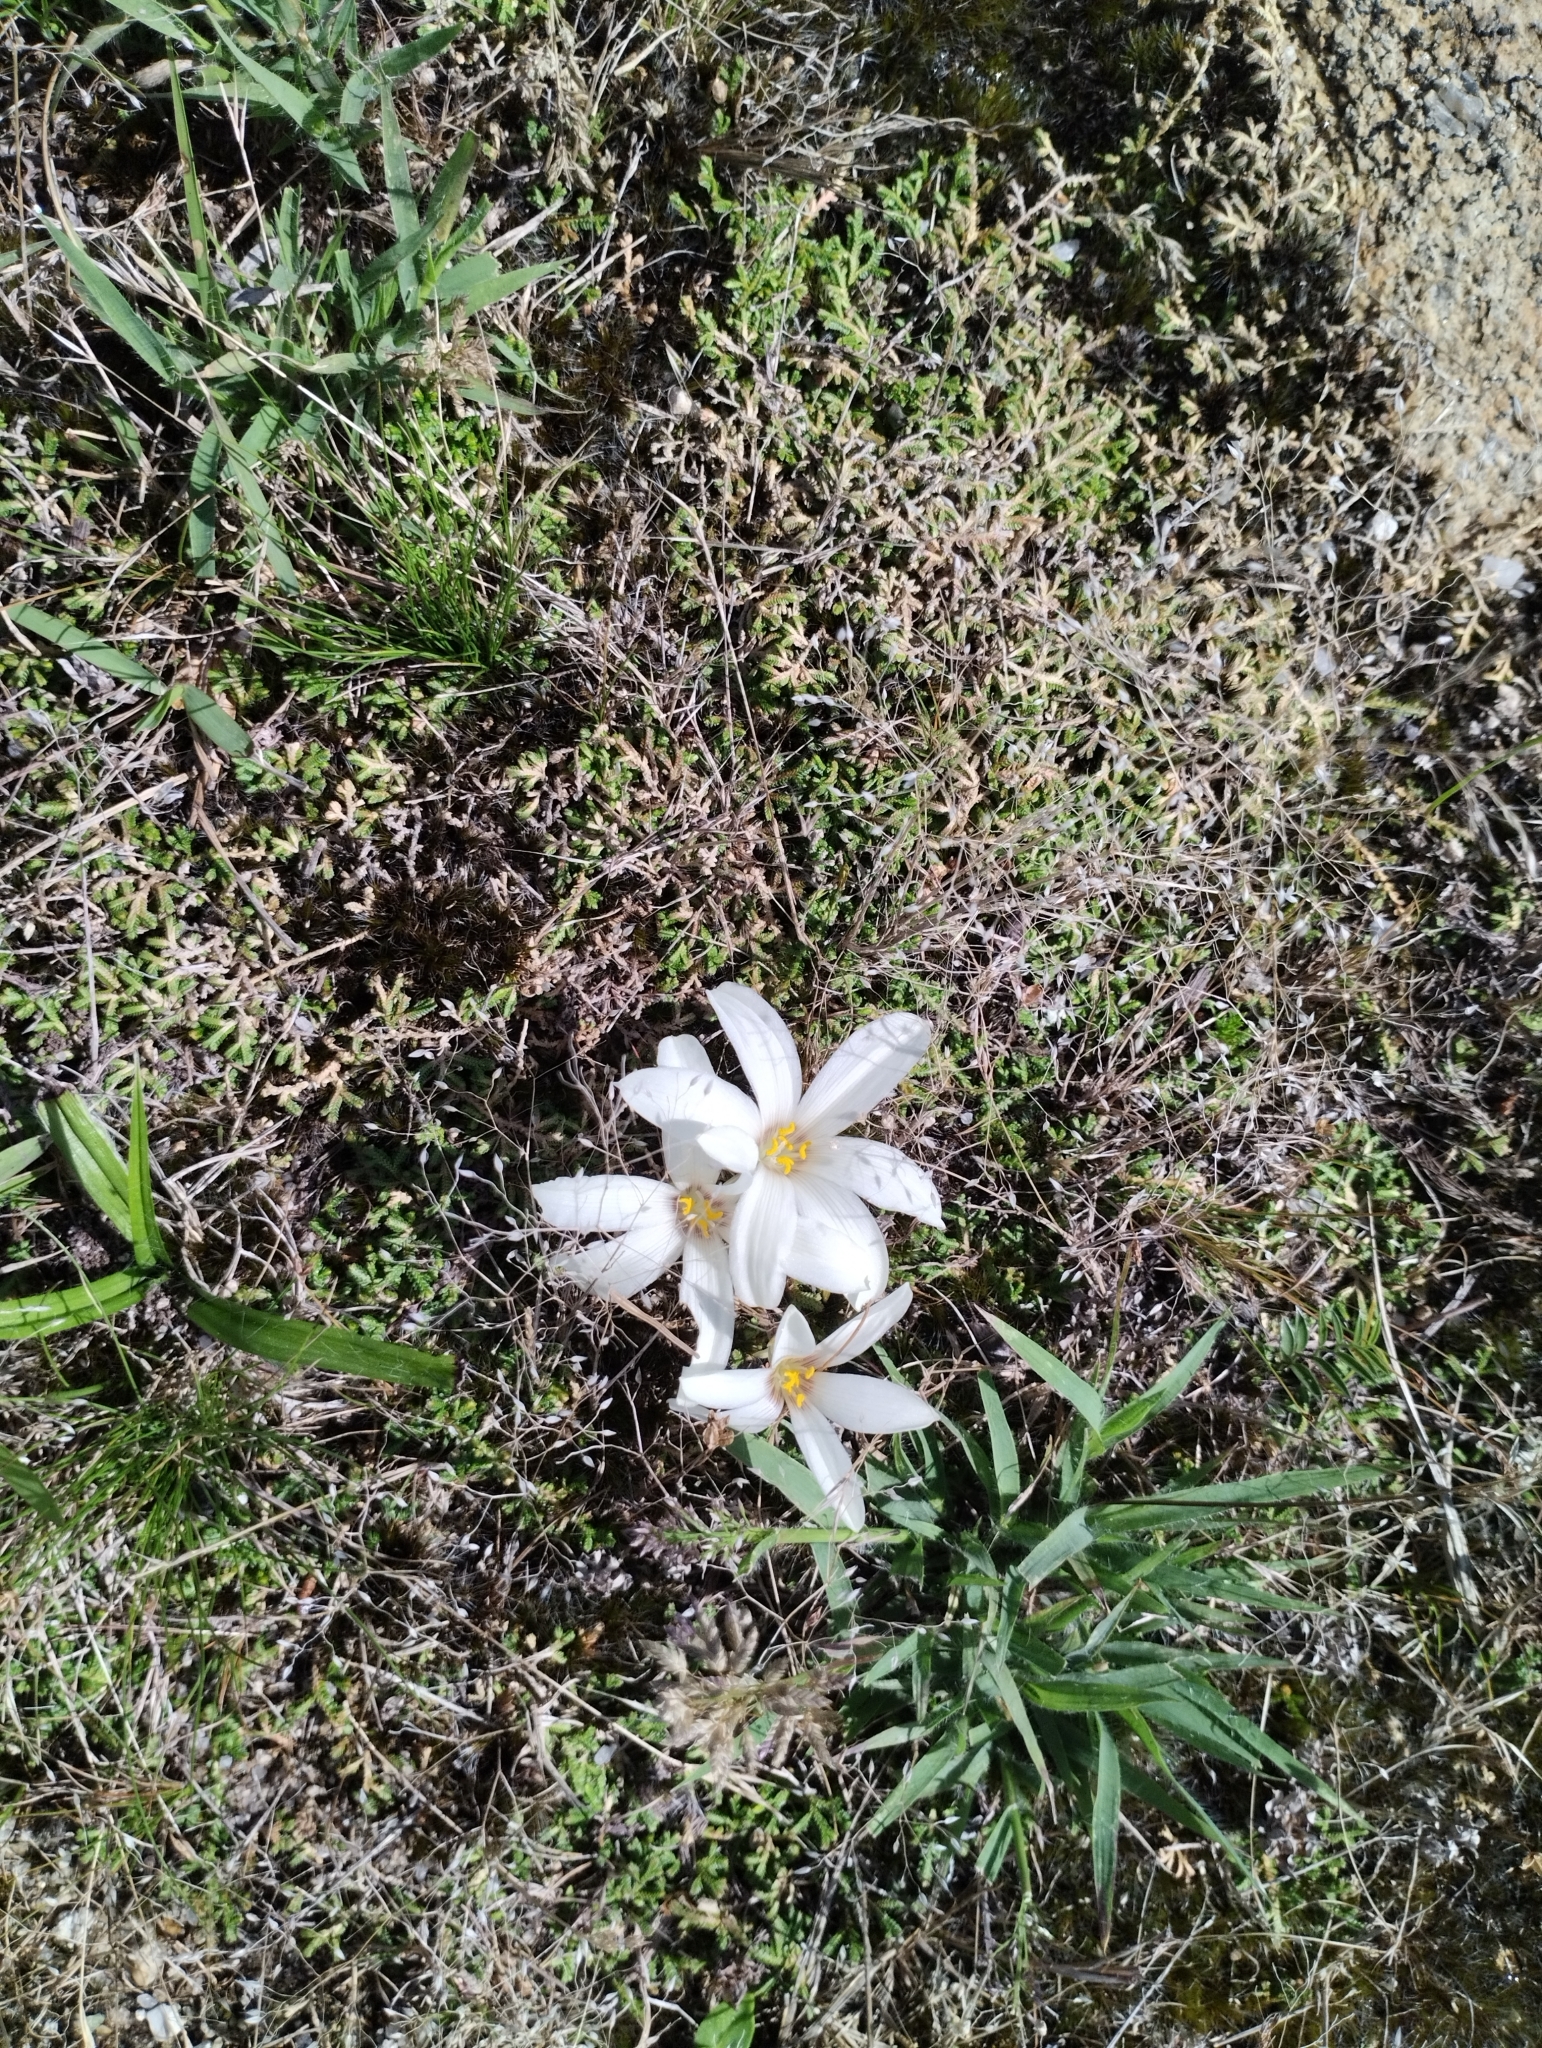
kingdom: Plantae
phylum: Tracheophyta
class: Liliopsida
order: Asparagales
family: Amaryllidaceae
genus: Zephyranthes
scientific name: Zephyranthes americana
